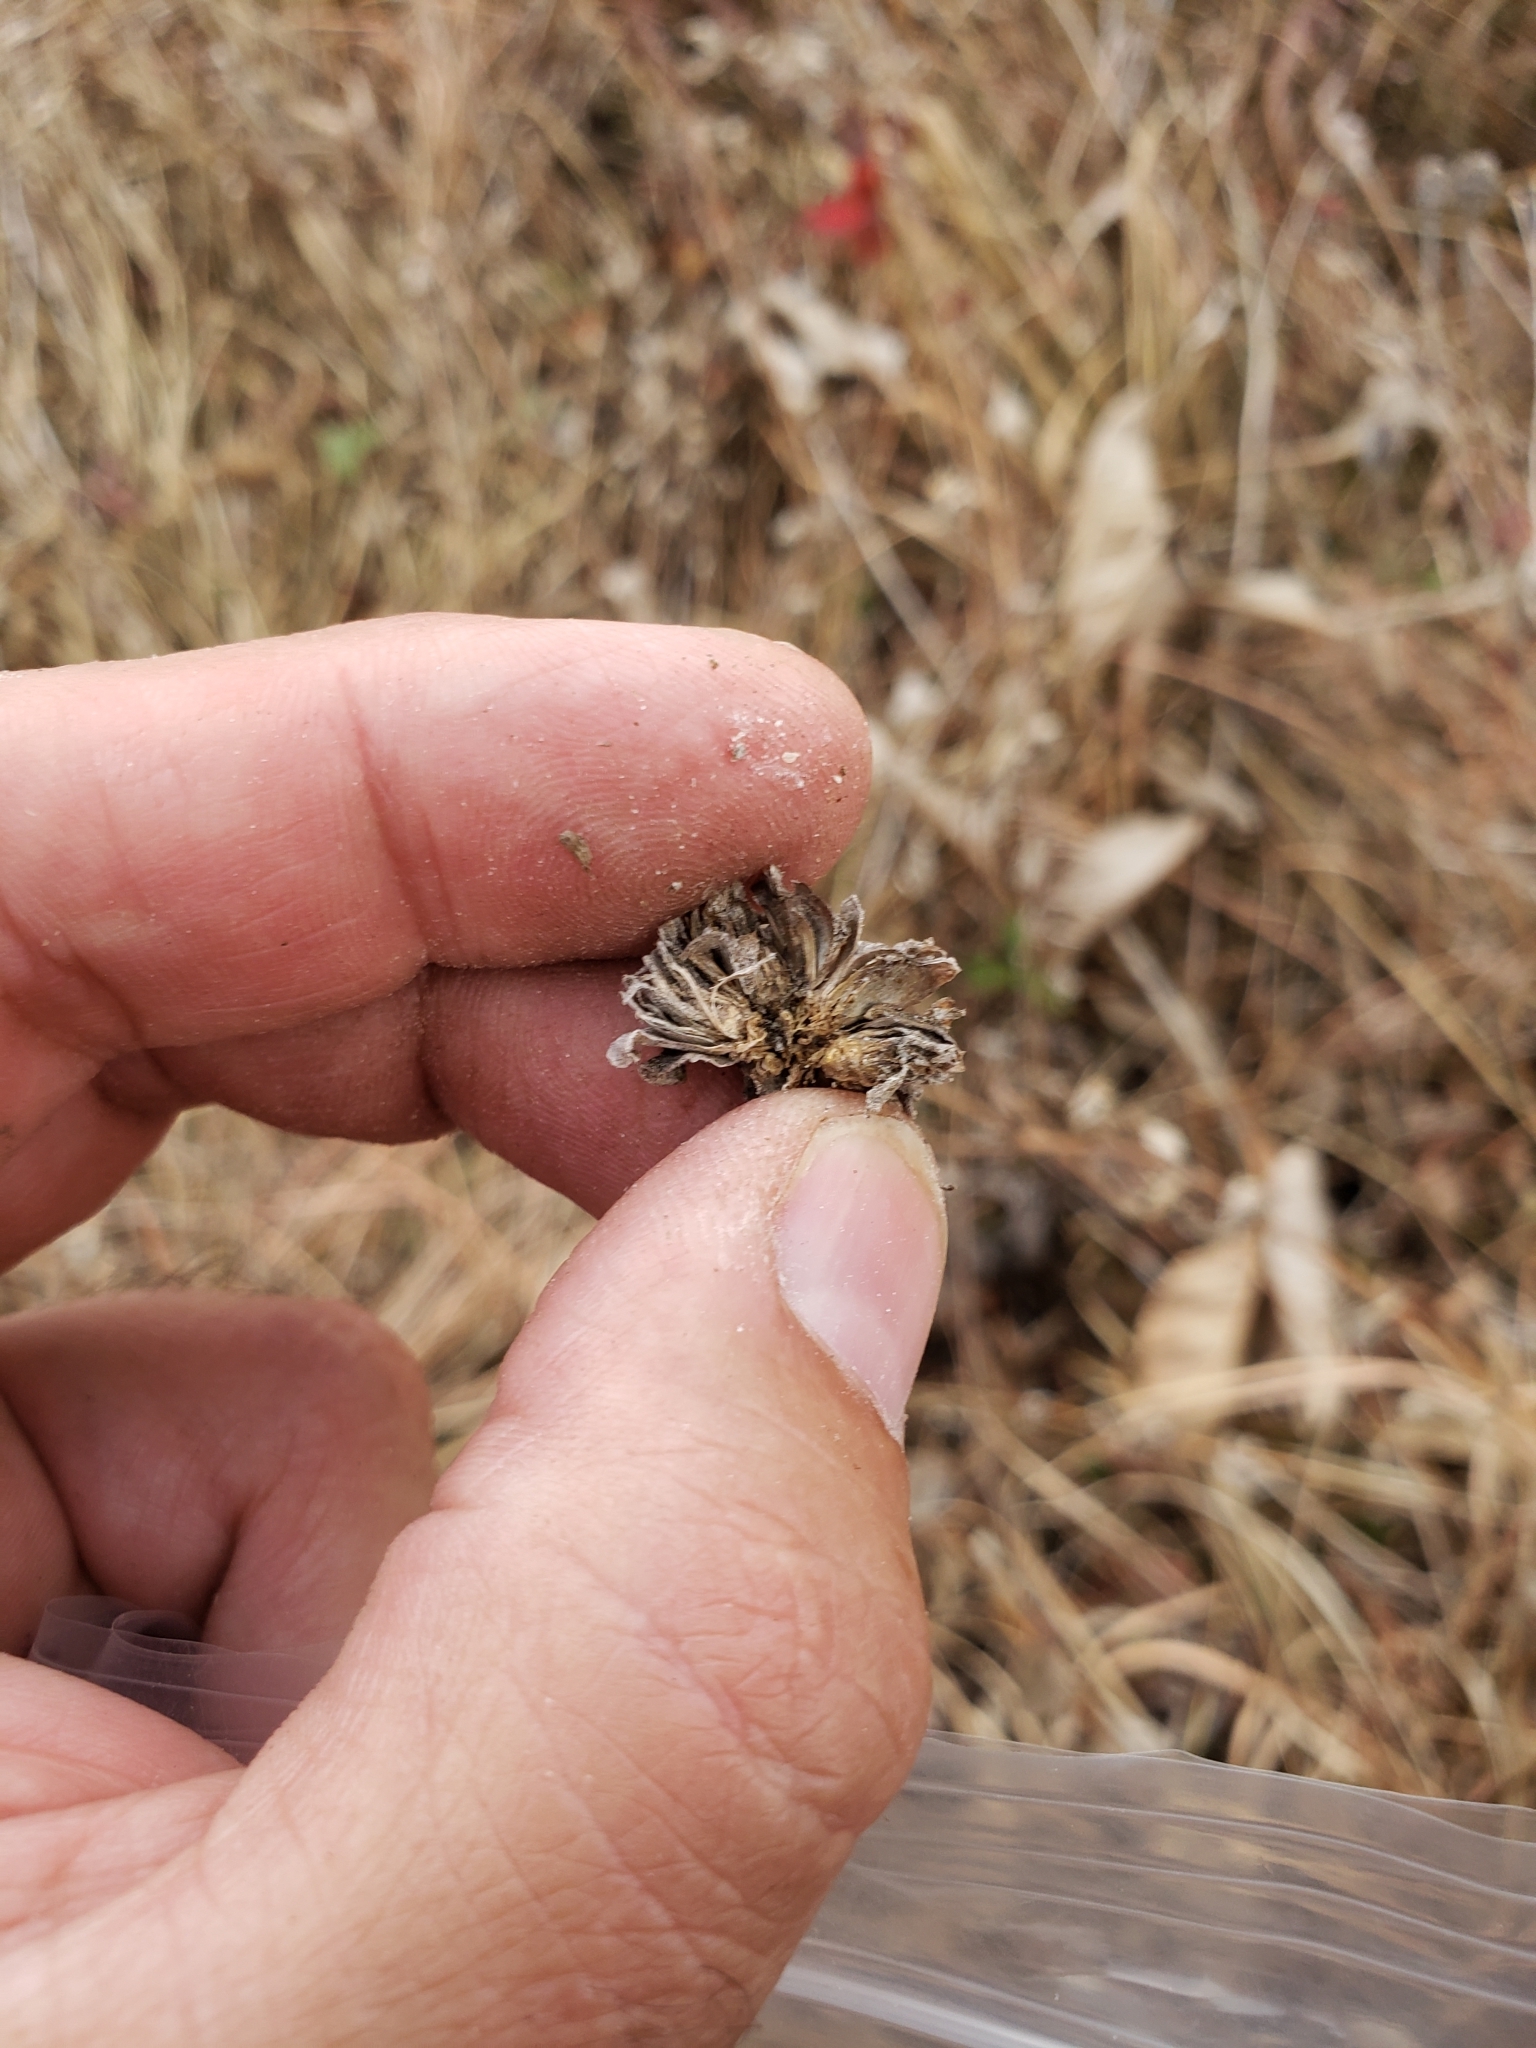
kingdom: Animalia
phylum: Arthropoda
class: Insecta
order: Hymenoptera
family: Cynipidae
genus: Antistrophus
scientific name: Antistrophus
